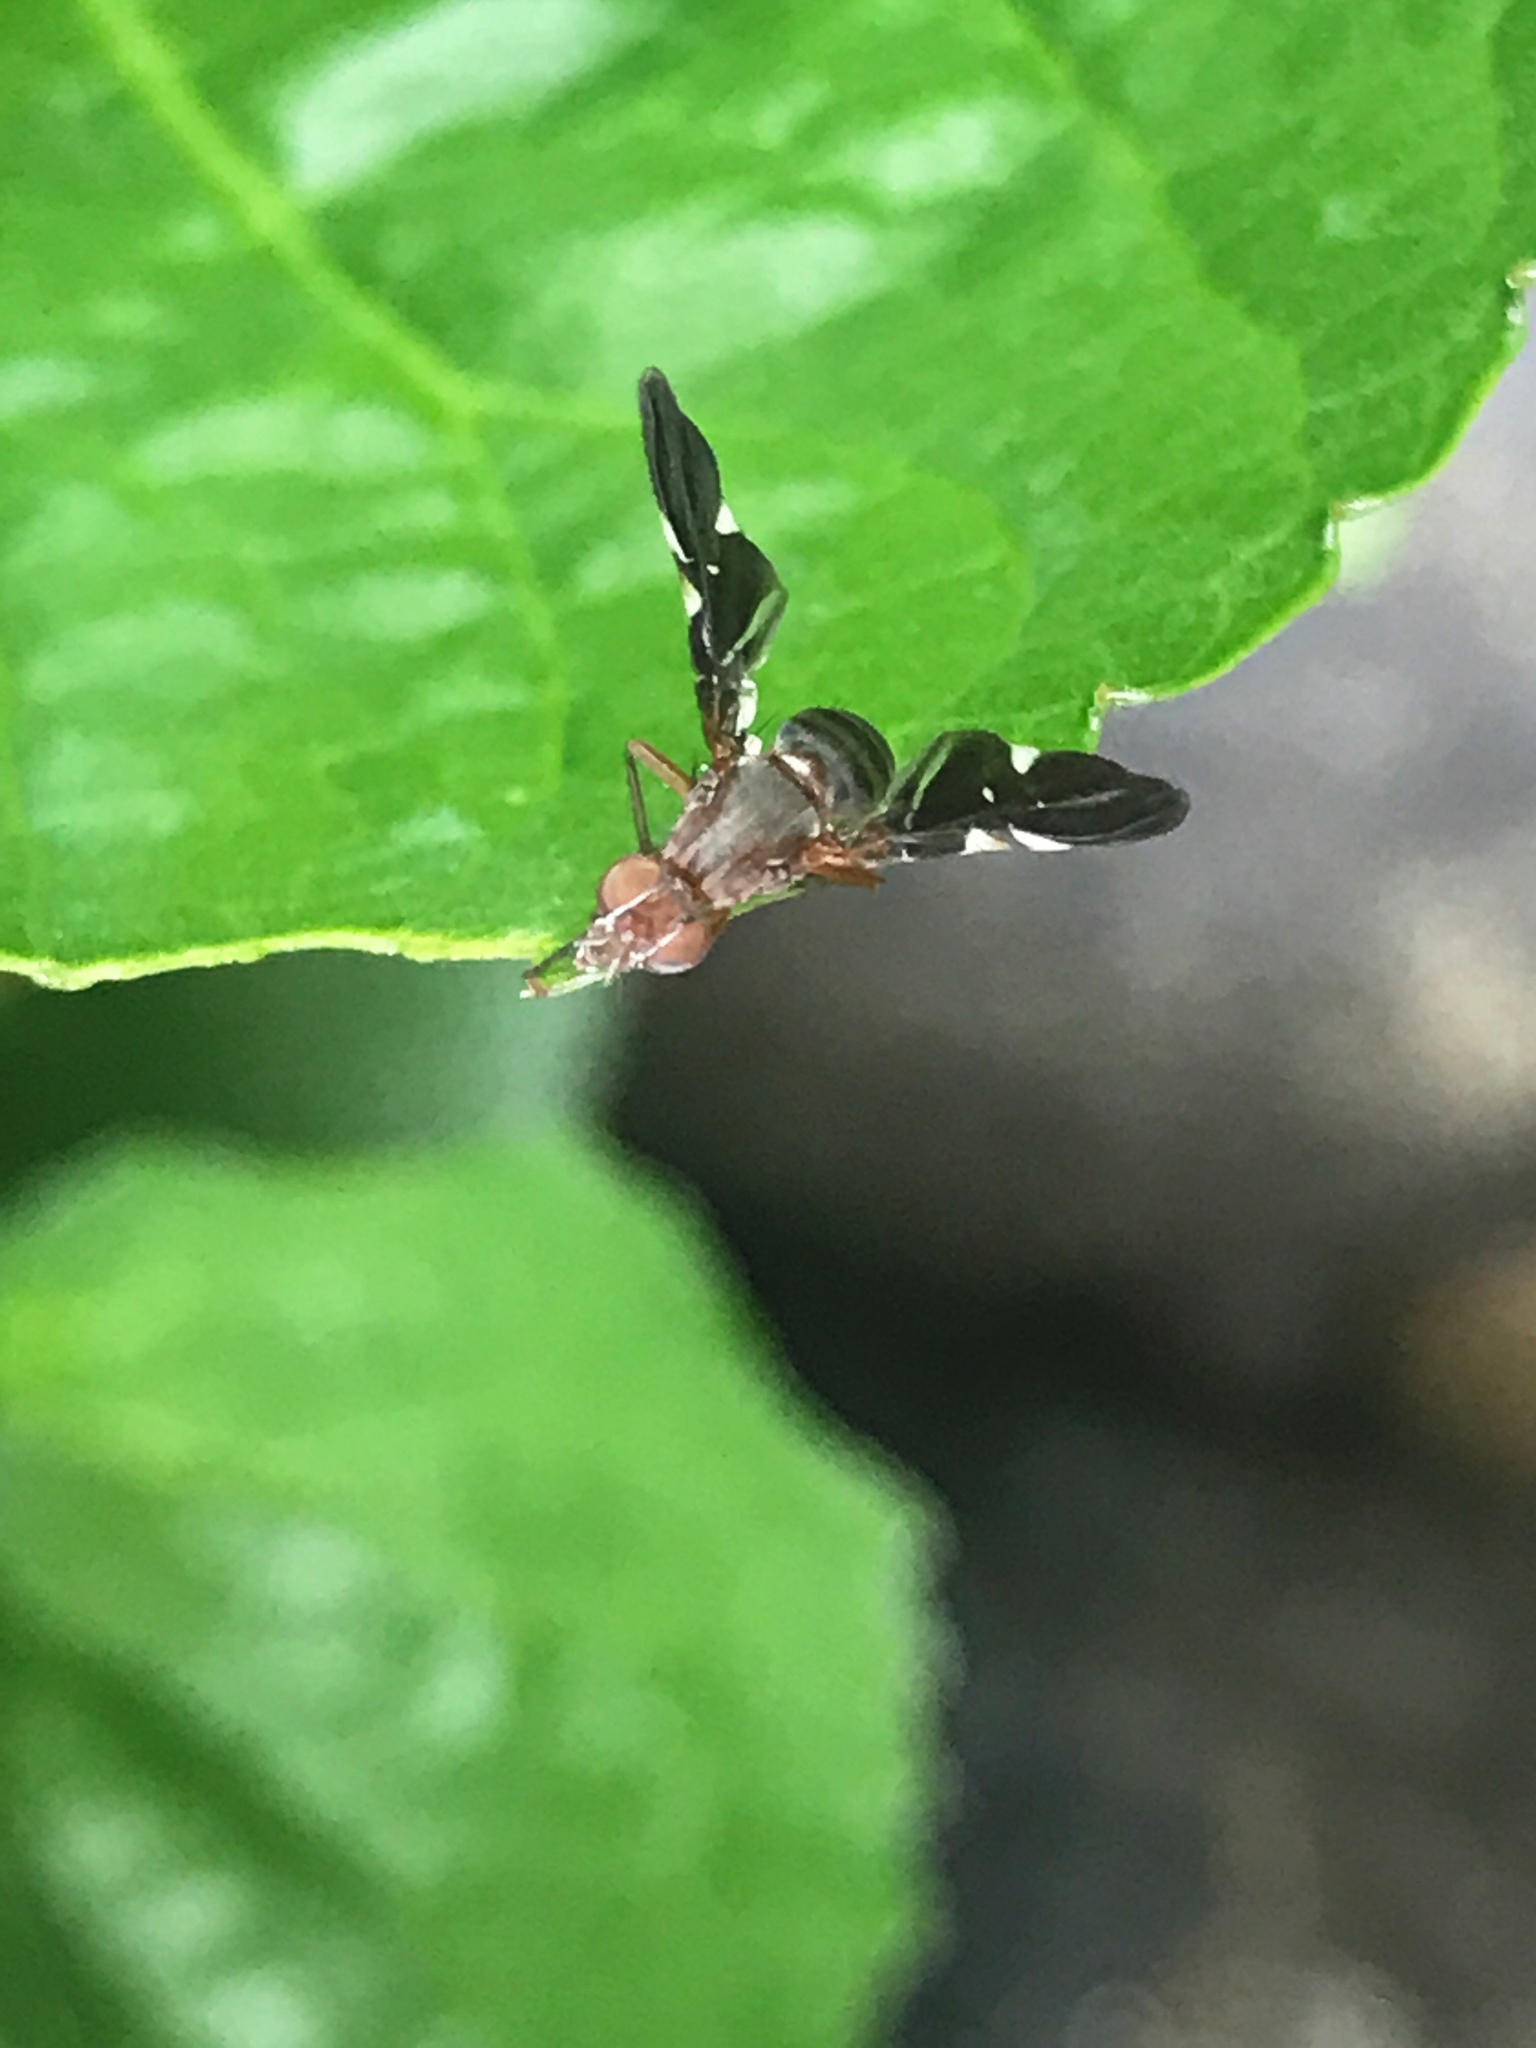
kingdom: Animalia
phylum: Arthropoda
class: Insecta
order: Diptera
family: Ulidiidae
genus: Delphinia
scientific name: Delphinia picta
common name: Common picture-winged fly
